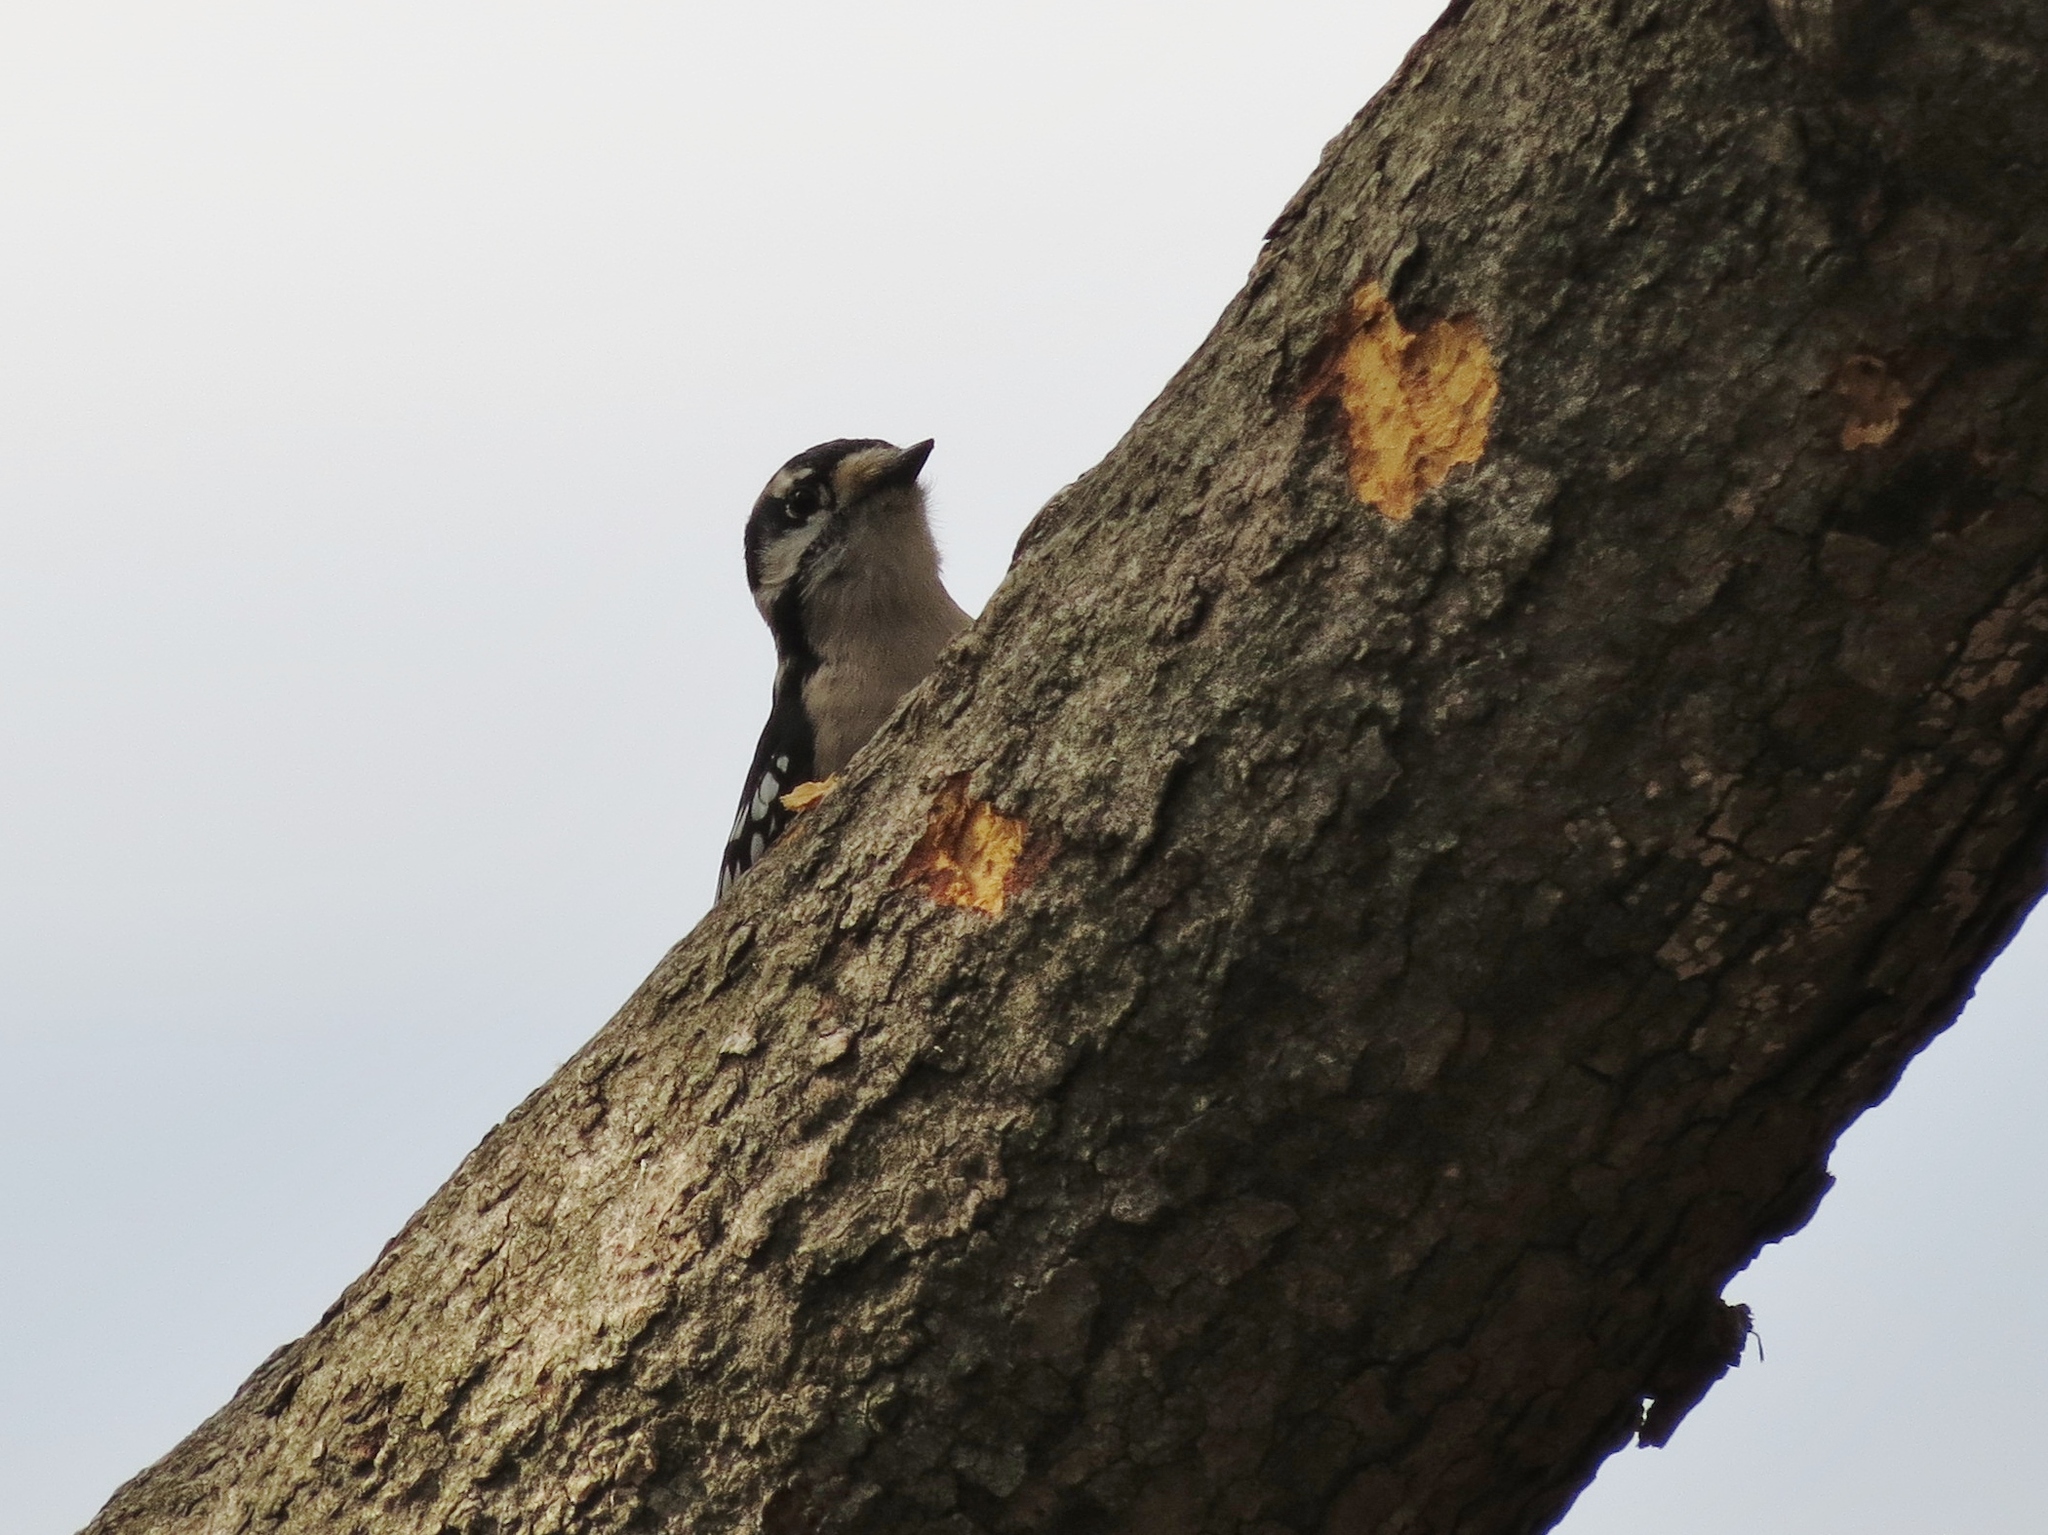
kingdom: Animalia
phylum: Chordata
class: Aves
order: Piciformes
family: Picidae
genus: Dryobates
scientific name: Dryobates pubescens
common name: Downy woodpecker
